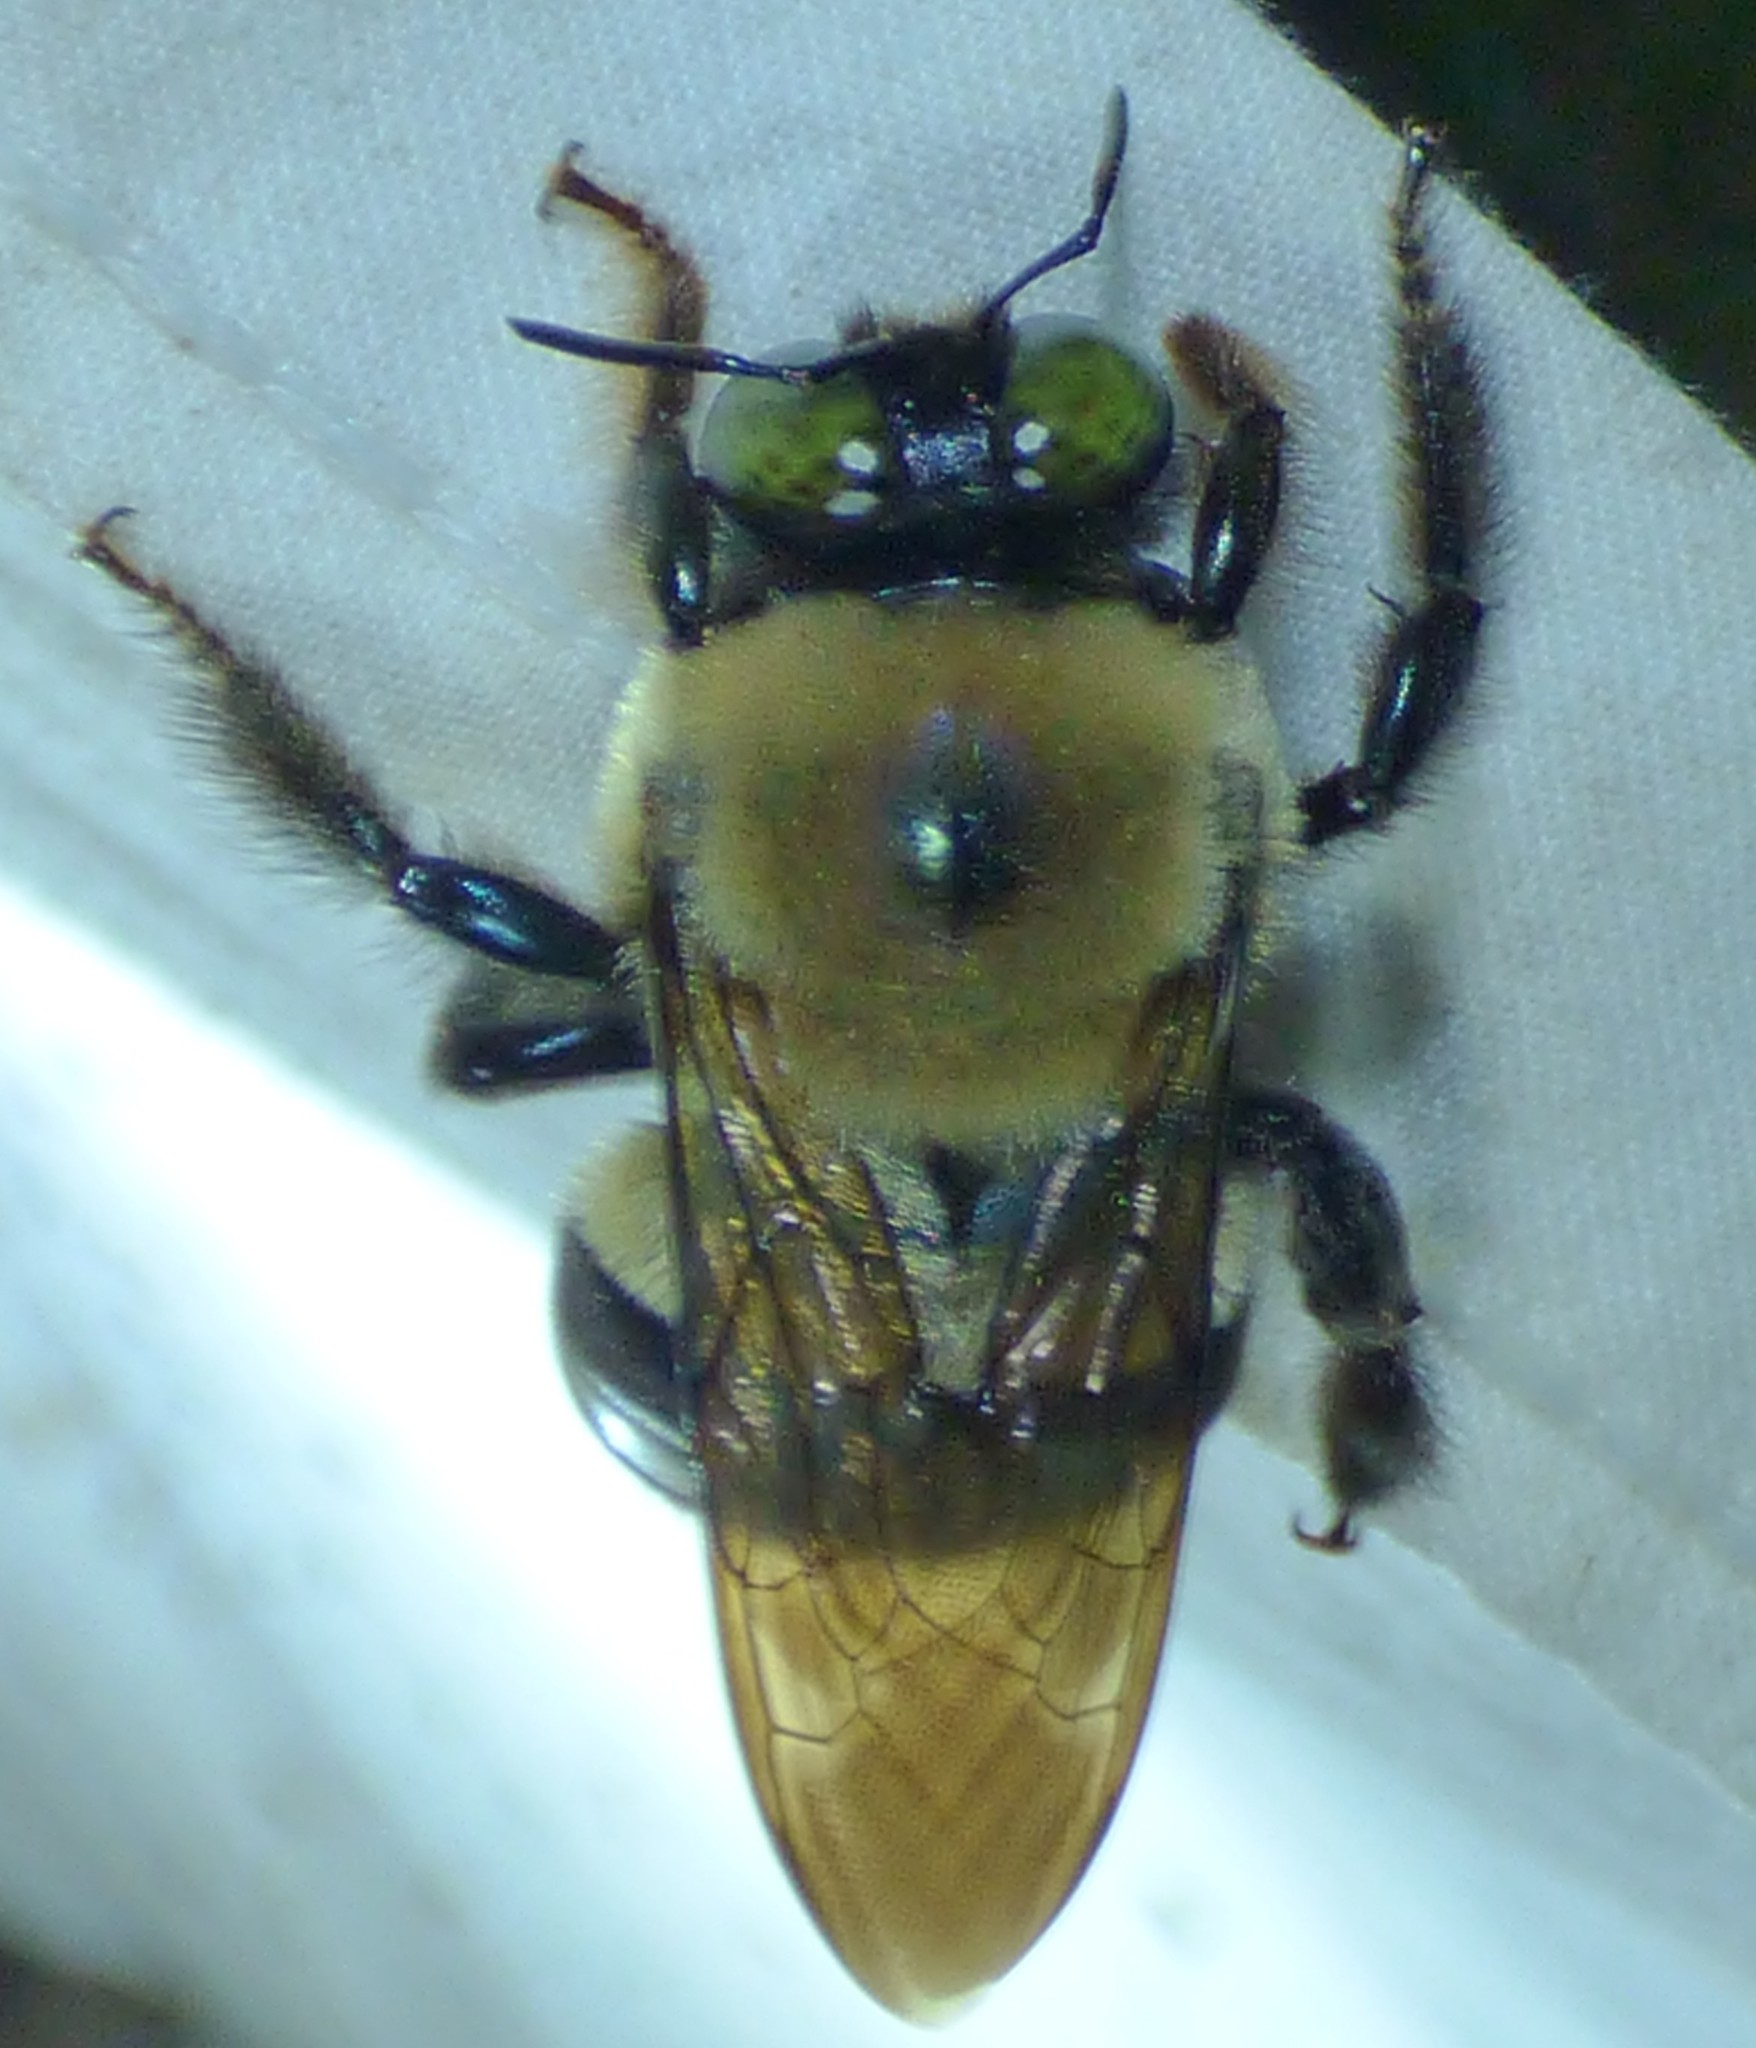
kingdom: Animalia
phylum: Arthropoda
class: Insecta
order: Hymenoptera
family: Apidae
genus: Xylocopa
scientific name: Xylocopa virginica
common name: Carpenter bee
